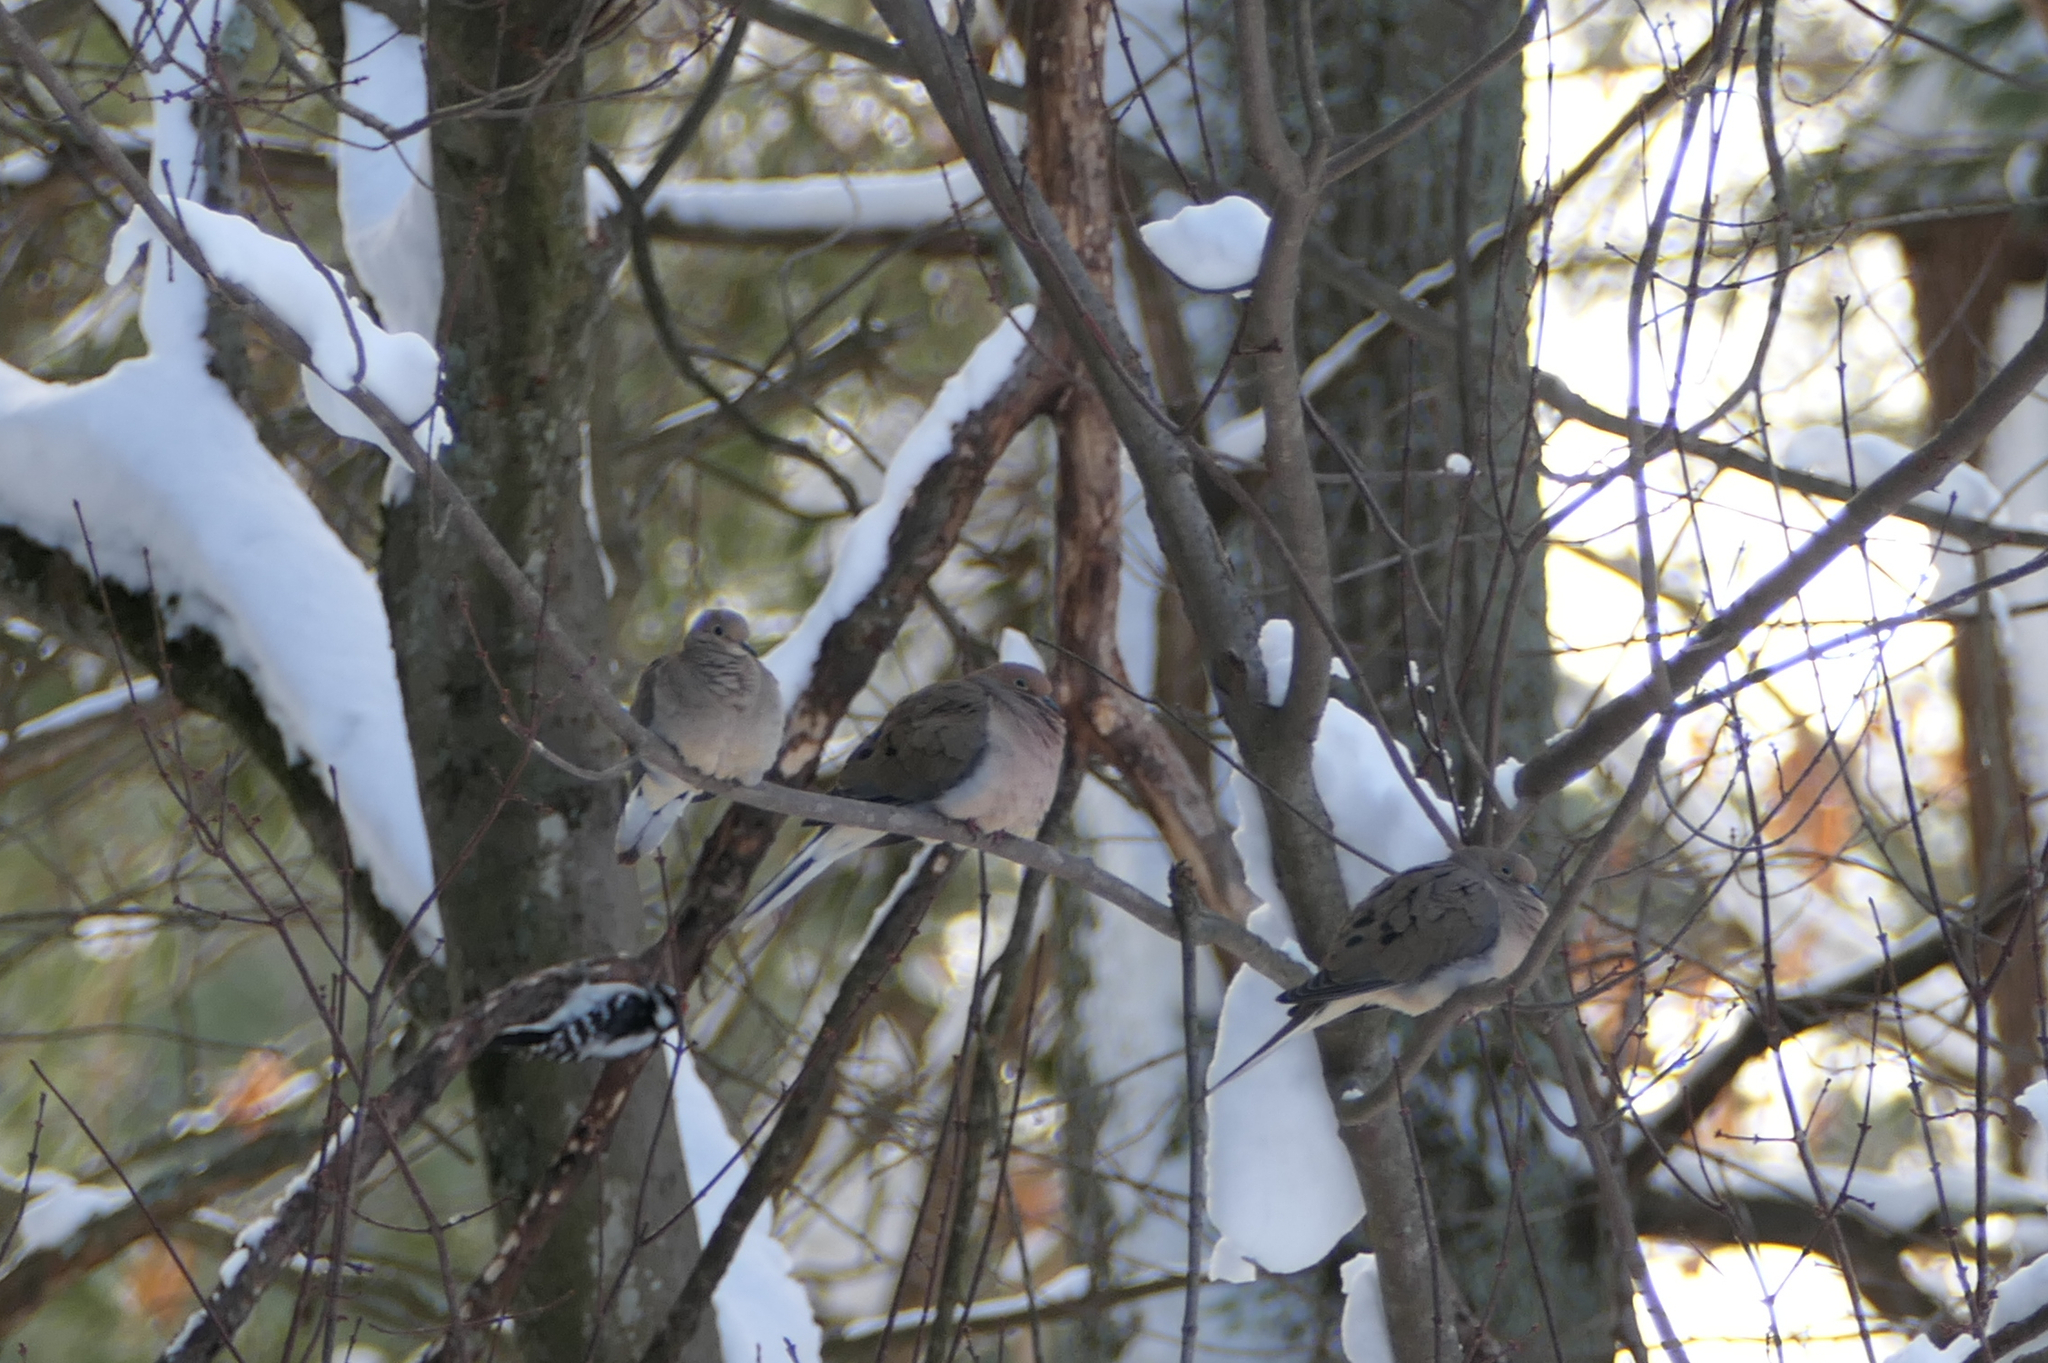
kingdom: Animalia
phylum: Chordata
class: Aves
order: Columbiformes
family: Columbidae
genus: Zenaida
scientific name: Zenaida macroura
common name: Mourning dove
